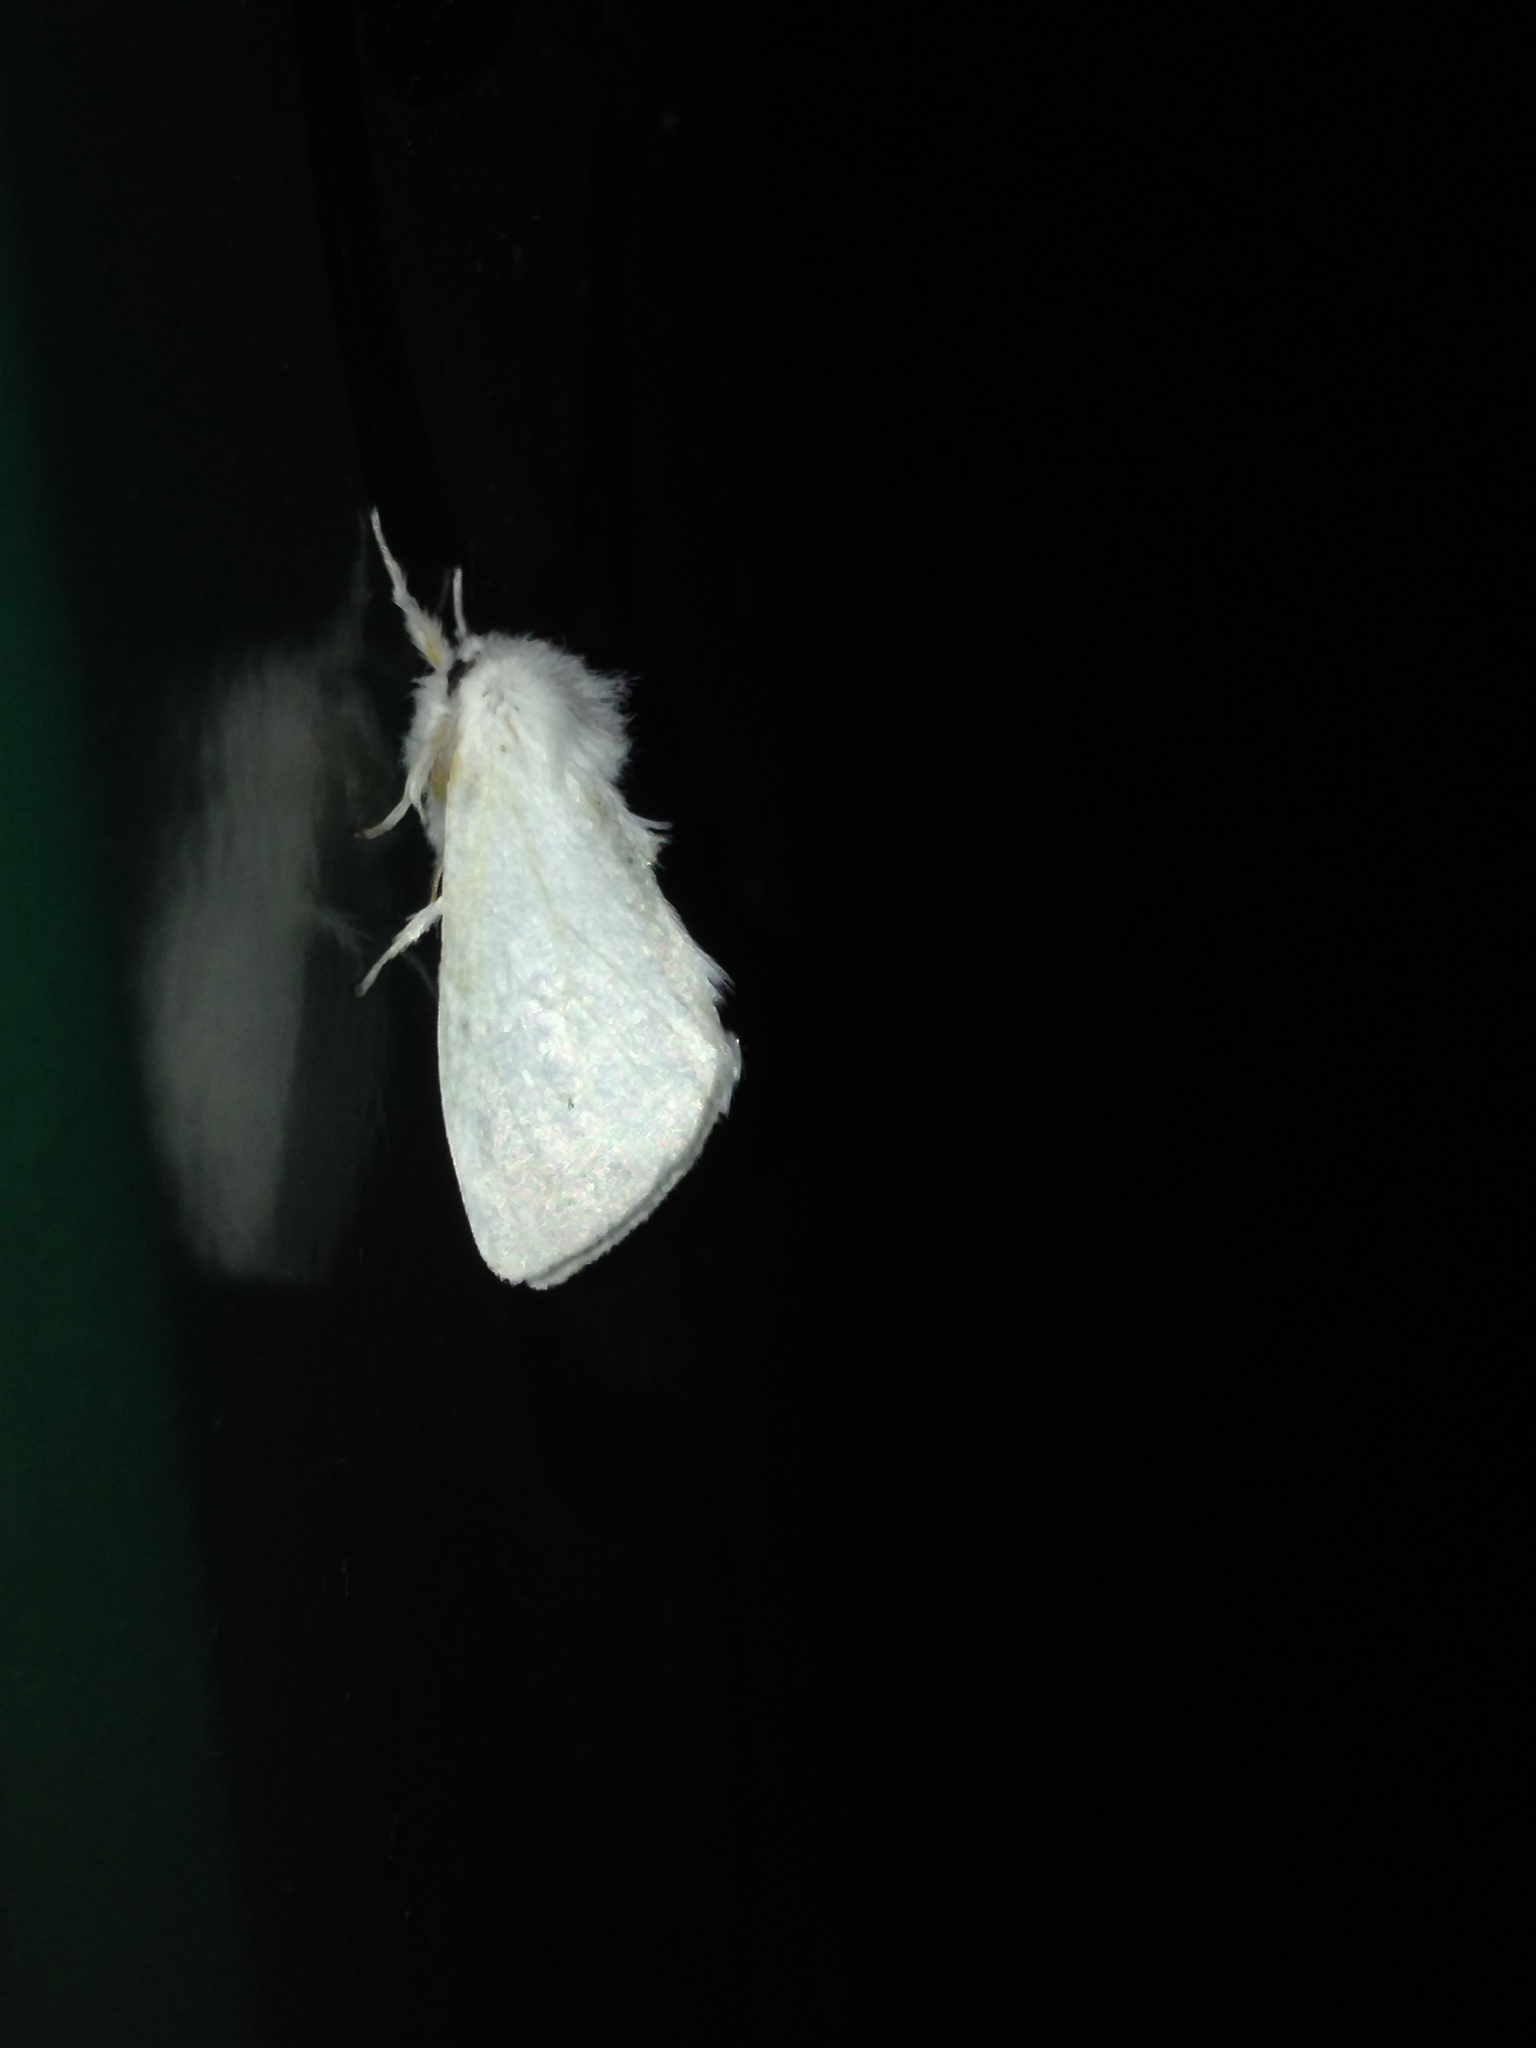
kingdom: Animalia
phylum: Arthropoda
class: Insecta
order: Lepidoptera
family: Erebidae
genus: Sphrageidus
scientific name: Sphrageidus similis
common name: Yellow-tail
